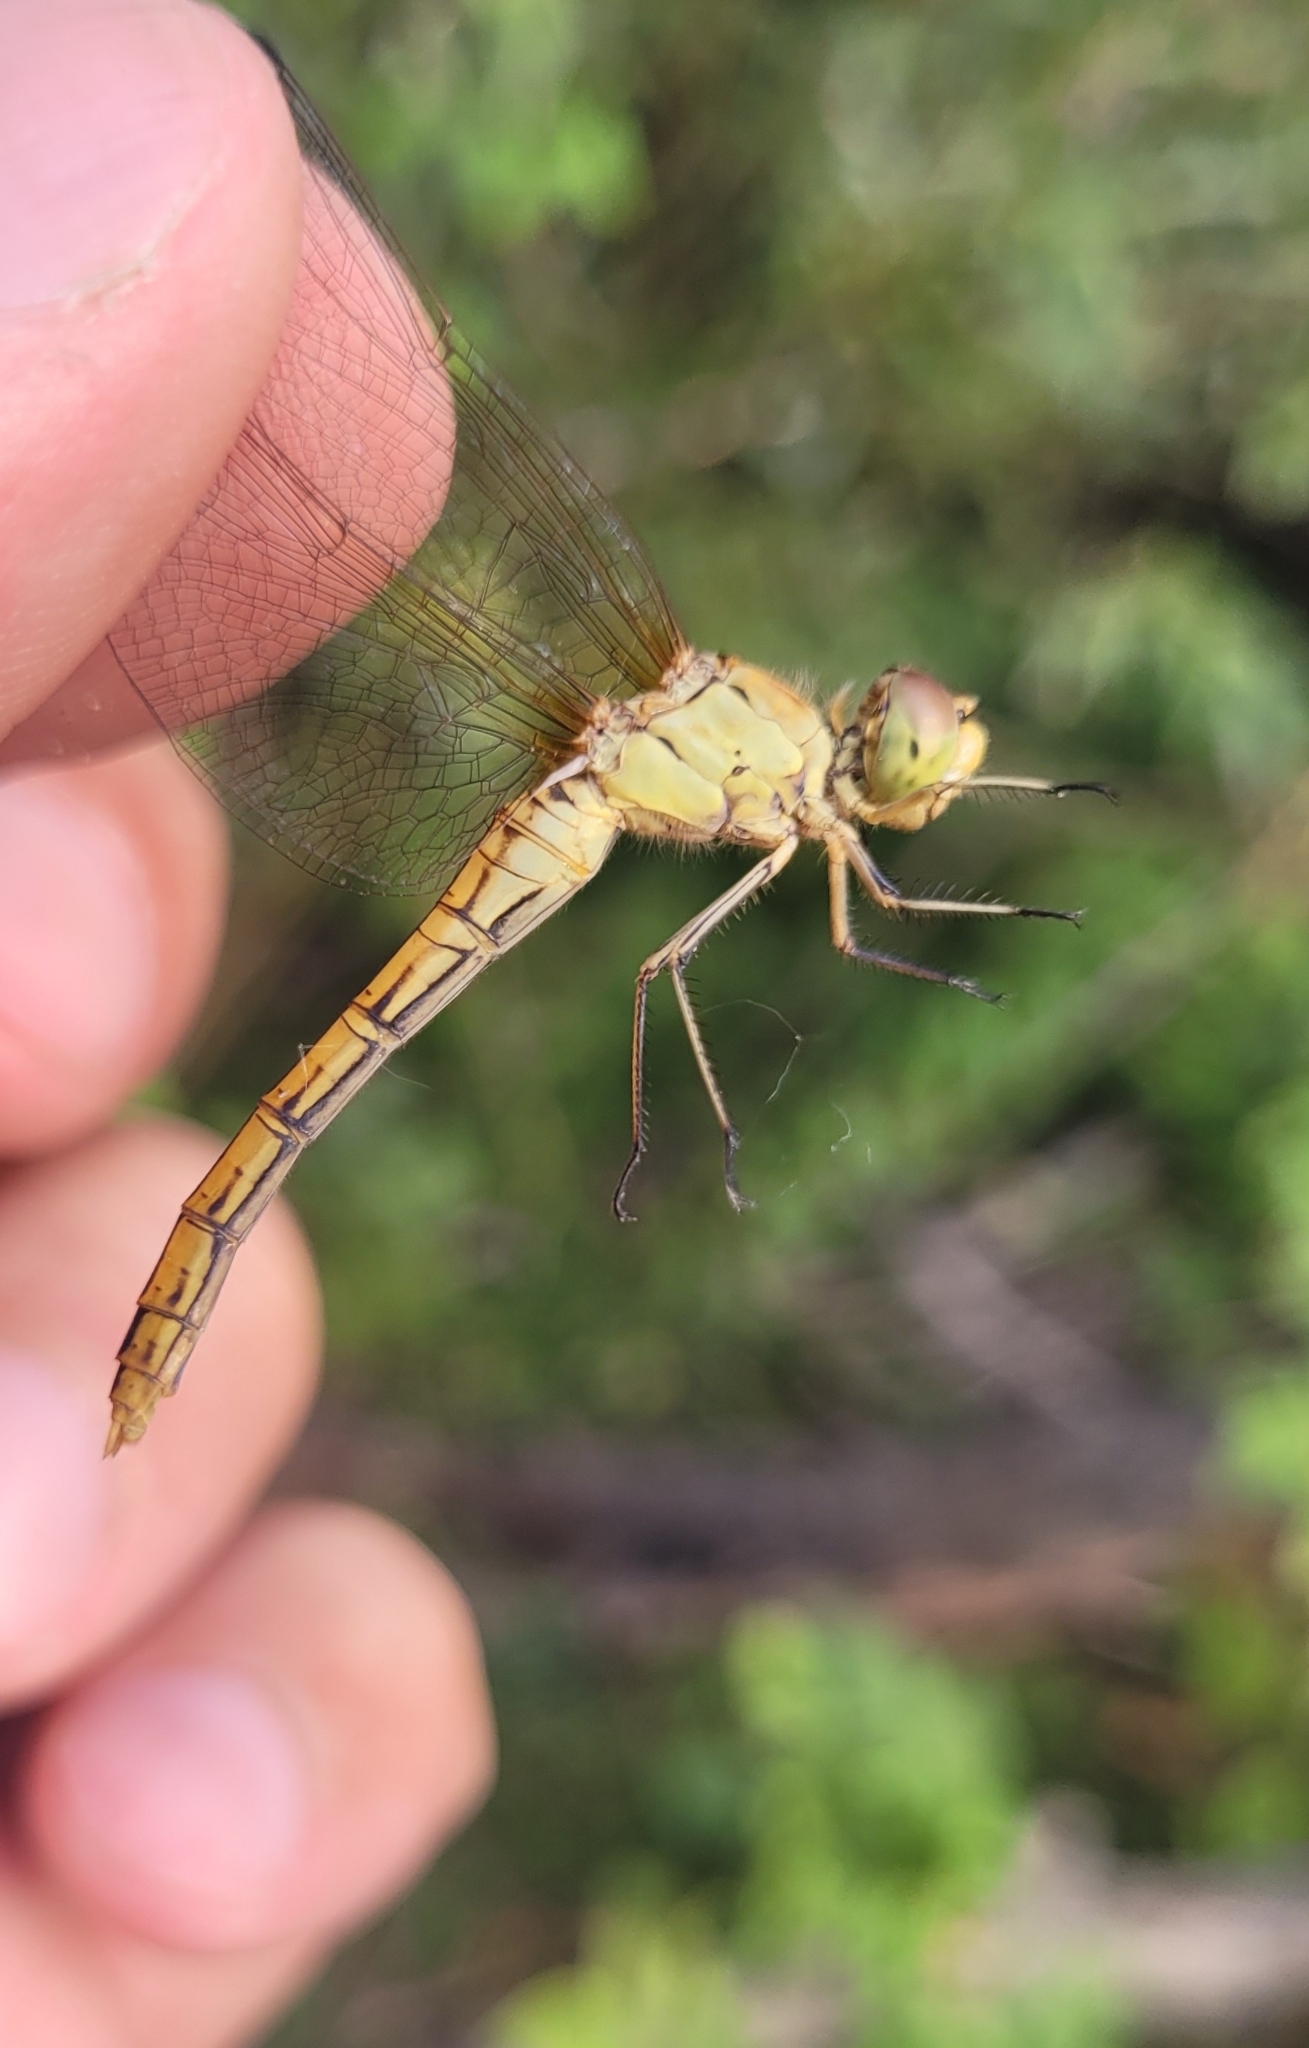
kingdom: Animalia
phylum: Arthropoda
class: Insecta
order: Odonata
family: Libellulidae
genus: Sympetrum
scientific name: Sympetrum meridionale
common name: Southern darter
